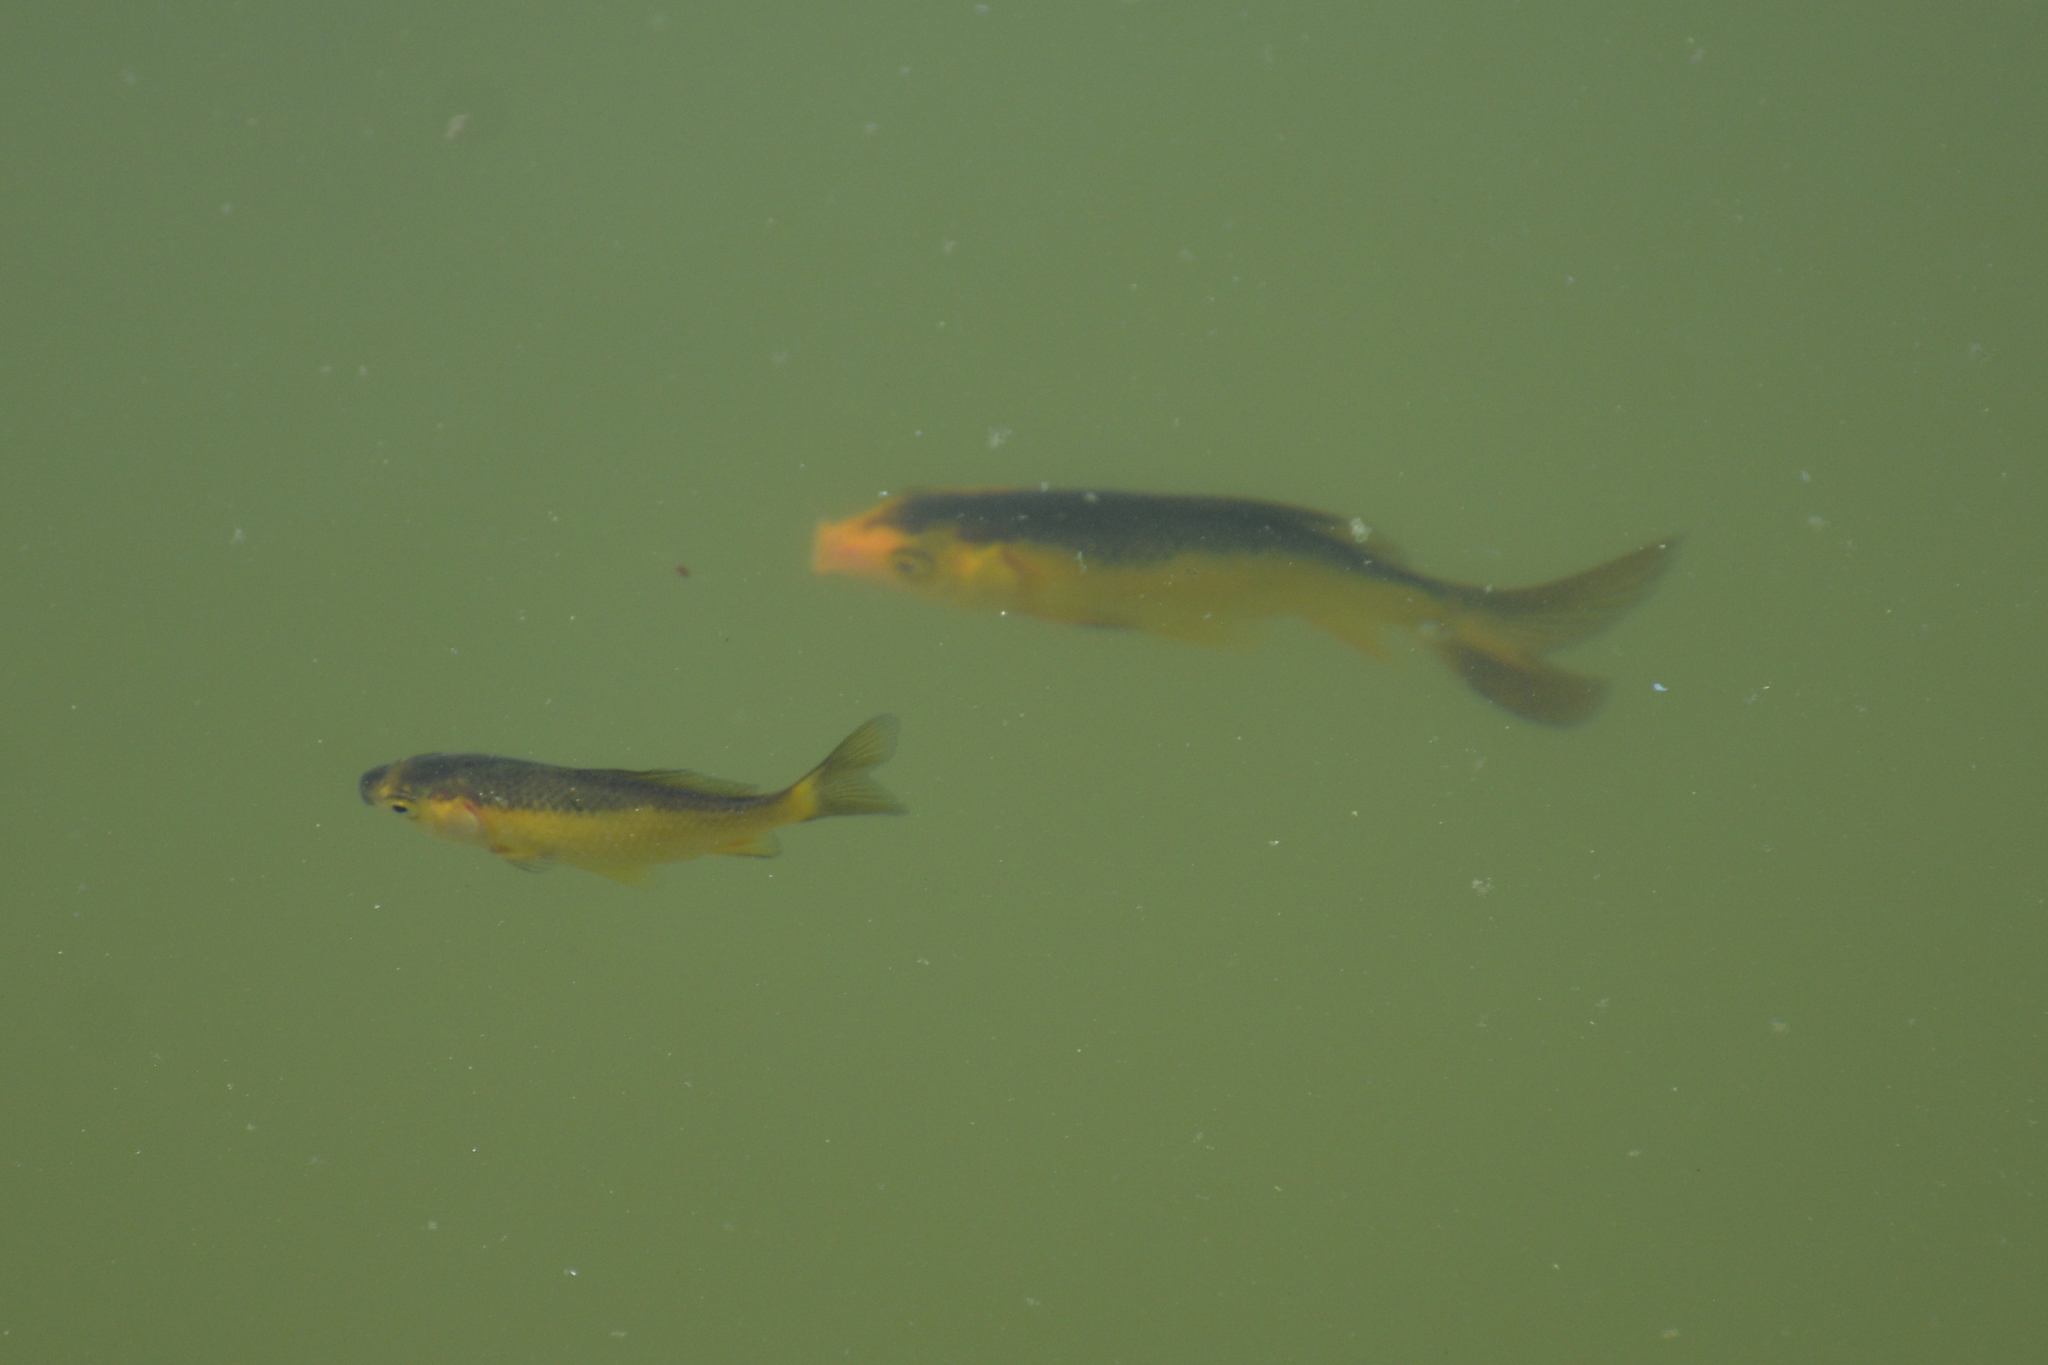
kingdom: Animalia
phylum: Chordata
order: Cypriniformes
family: Cyprinidae
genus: Carassius
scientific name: Carassius auratus
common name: Goldfish
